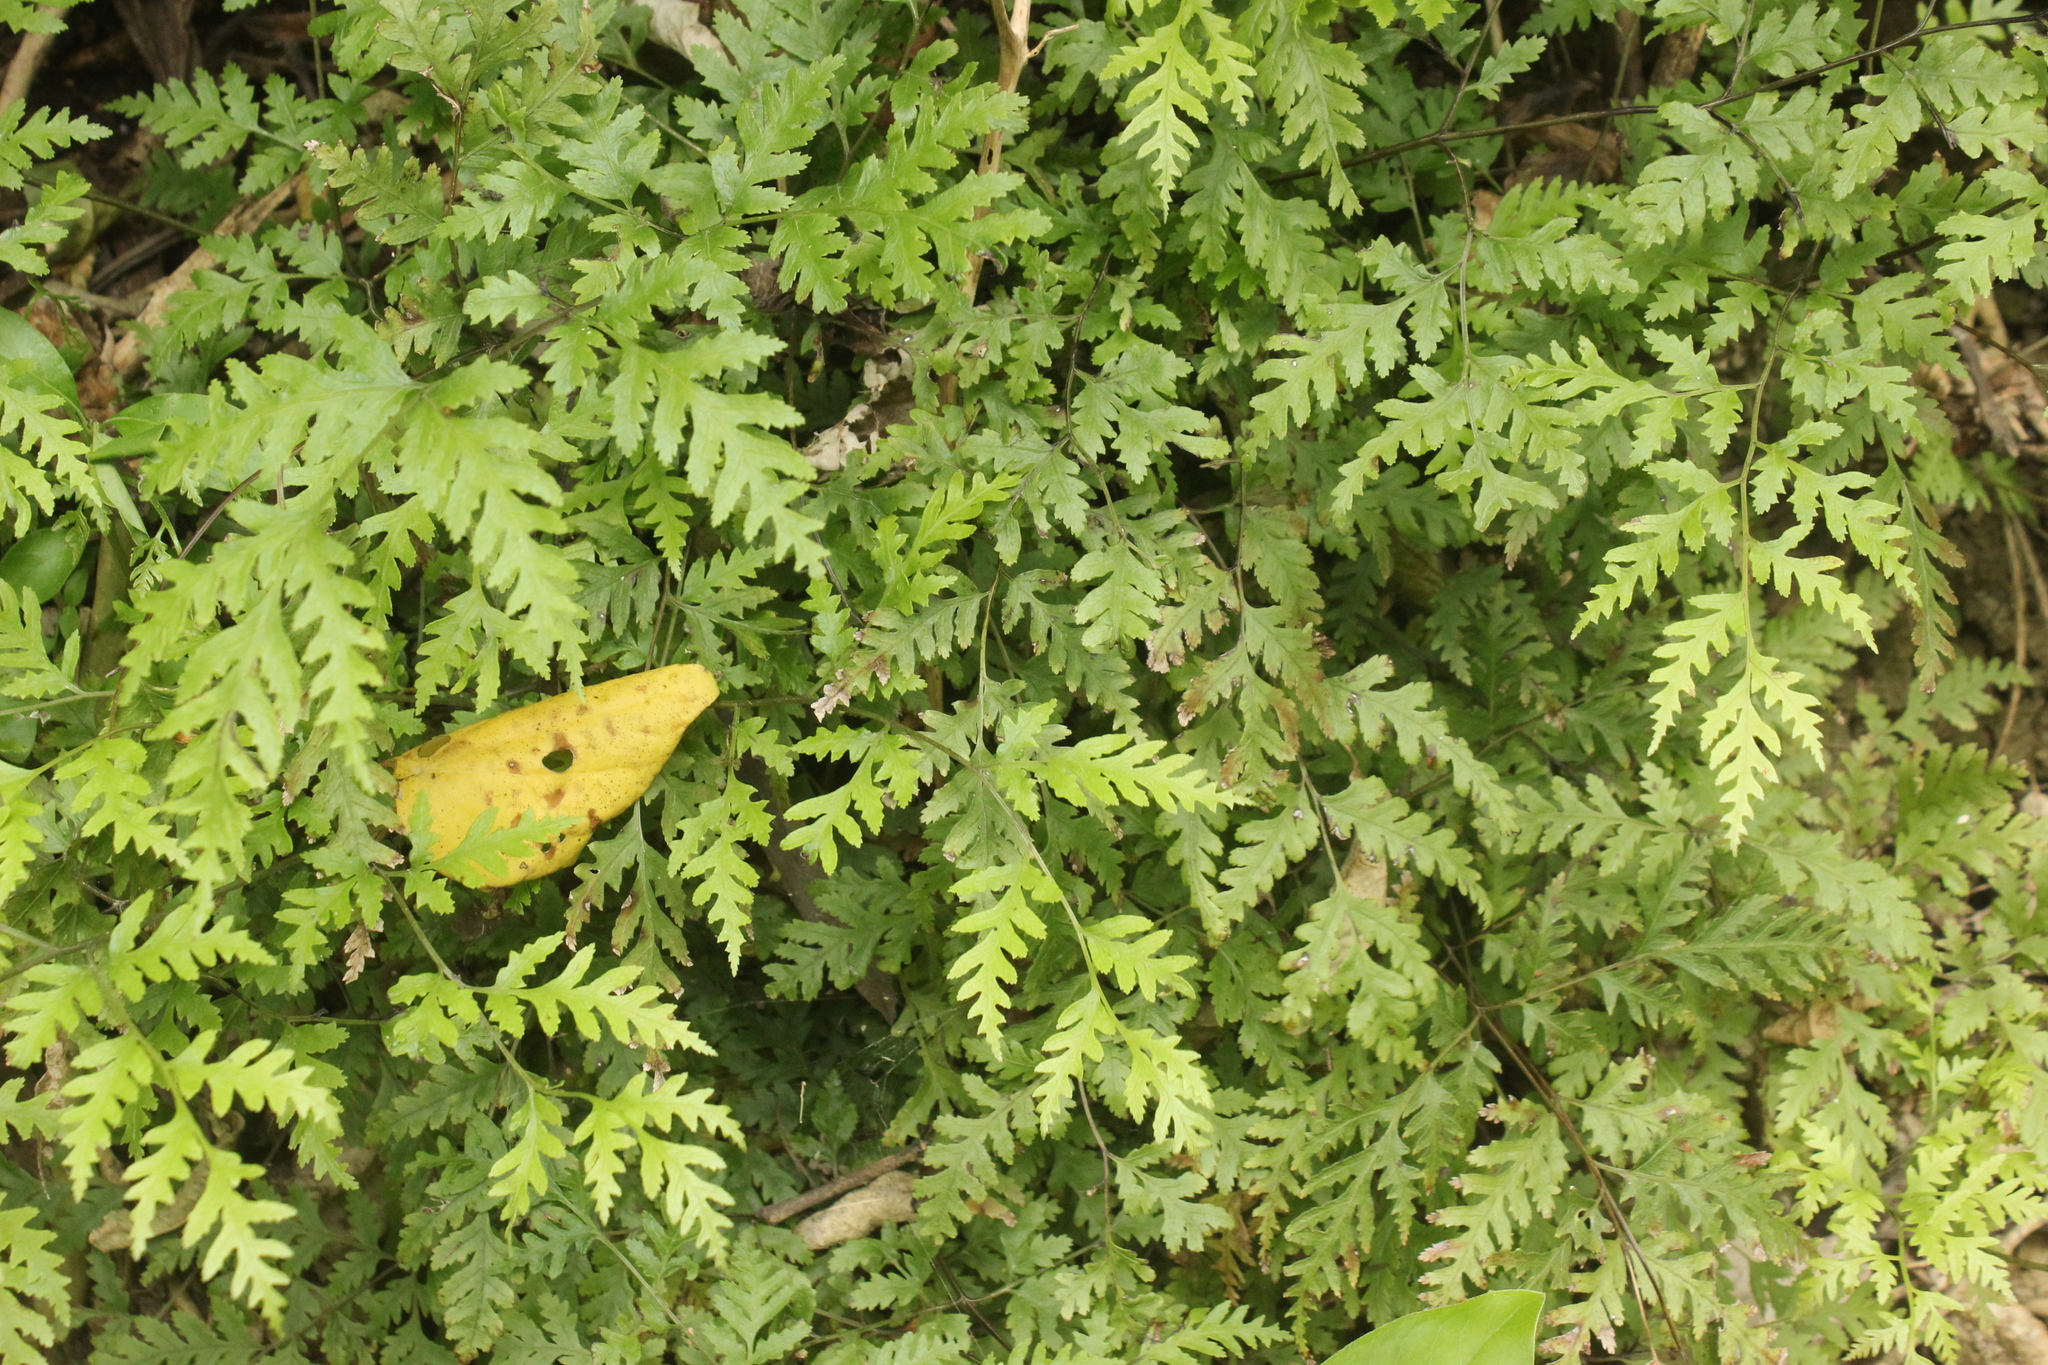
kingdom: Plantae
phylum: Tracheophyta
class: Polypodiopsida
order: Polypodiales
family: Pteridaceae
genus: Pteris
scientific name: Pteris macilenta
